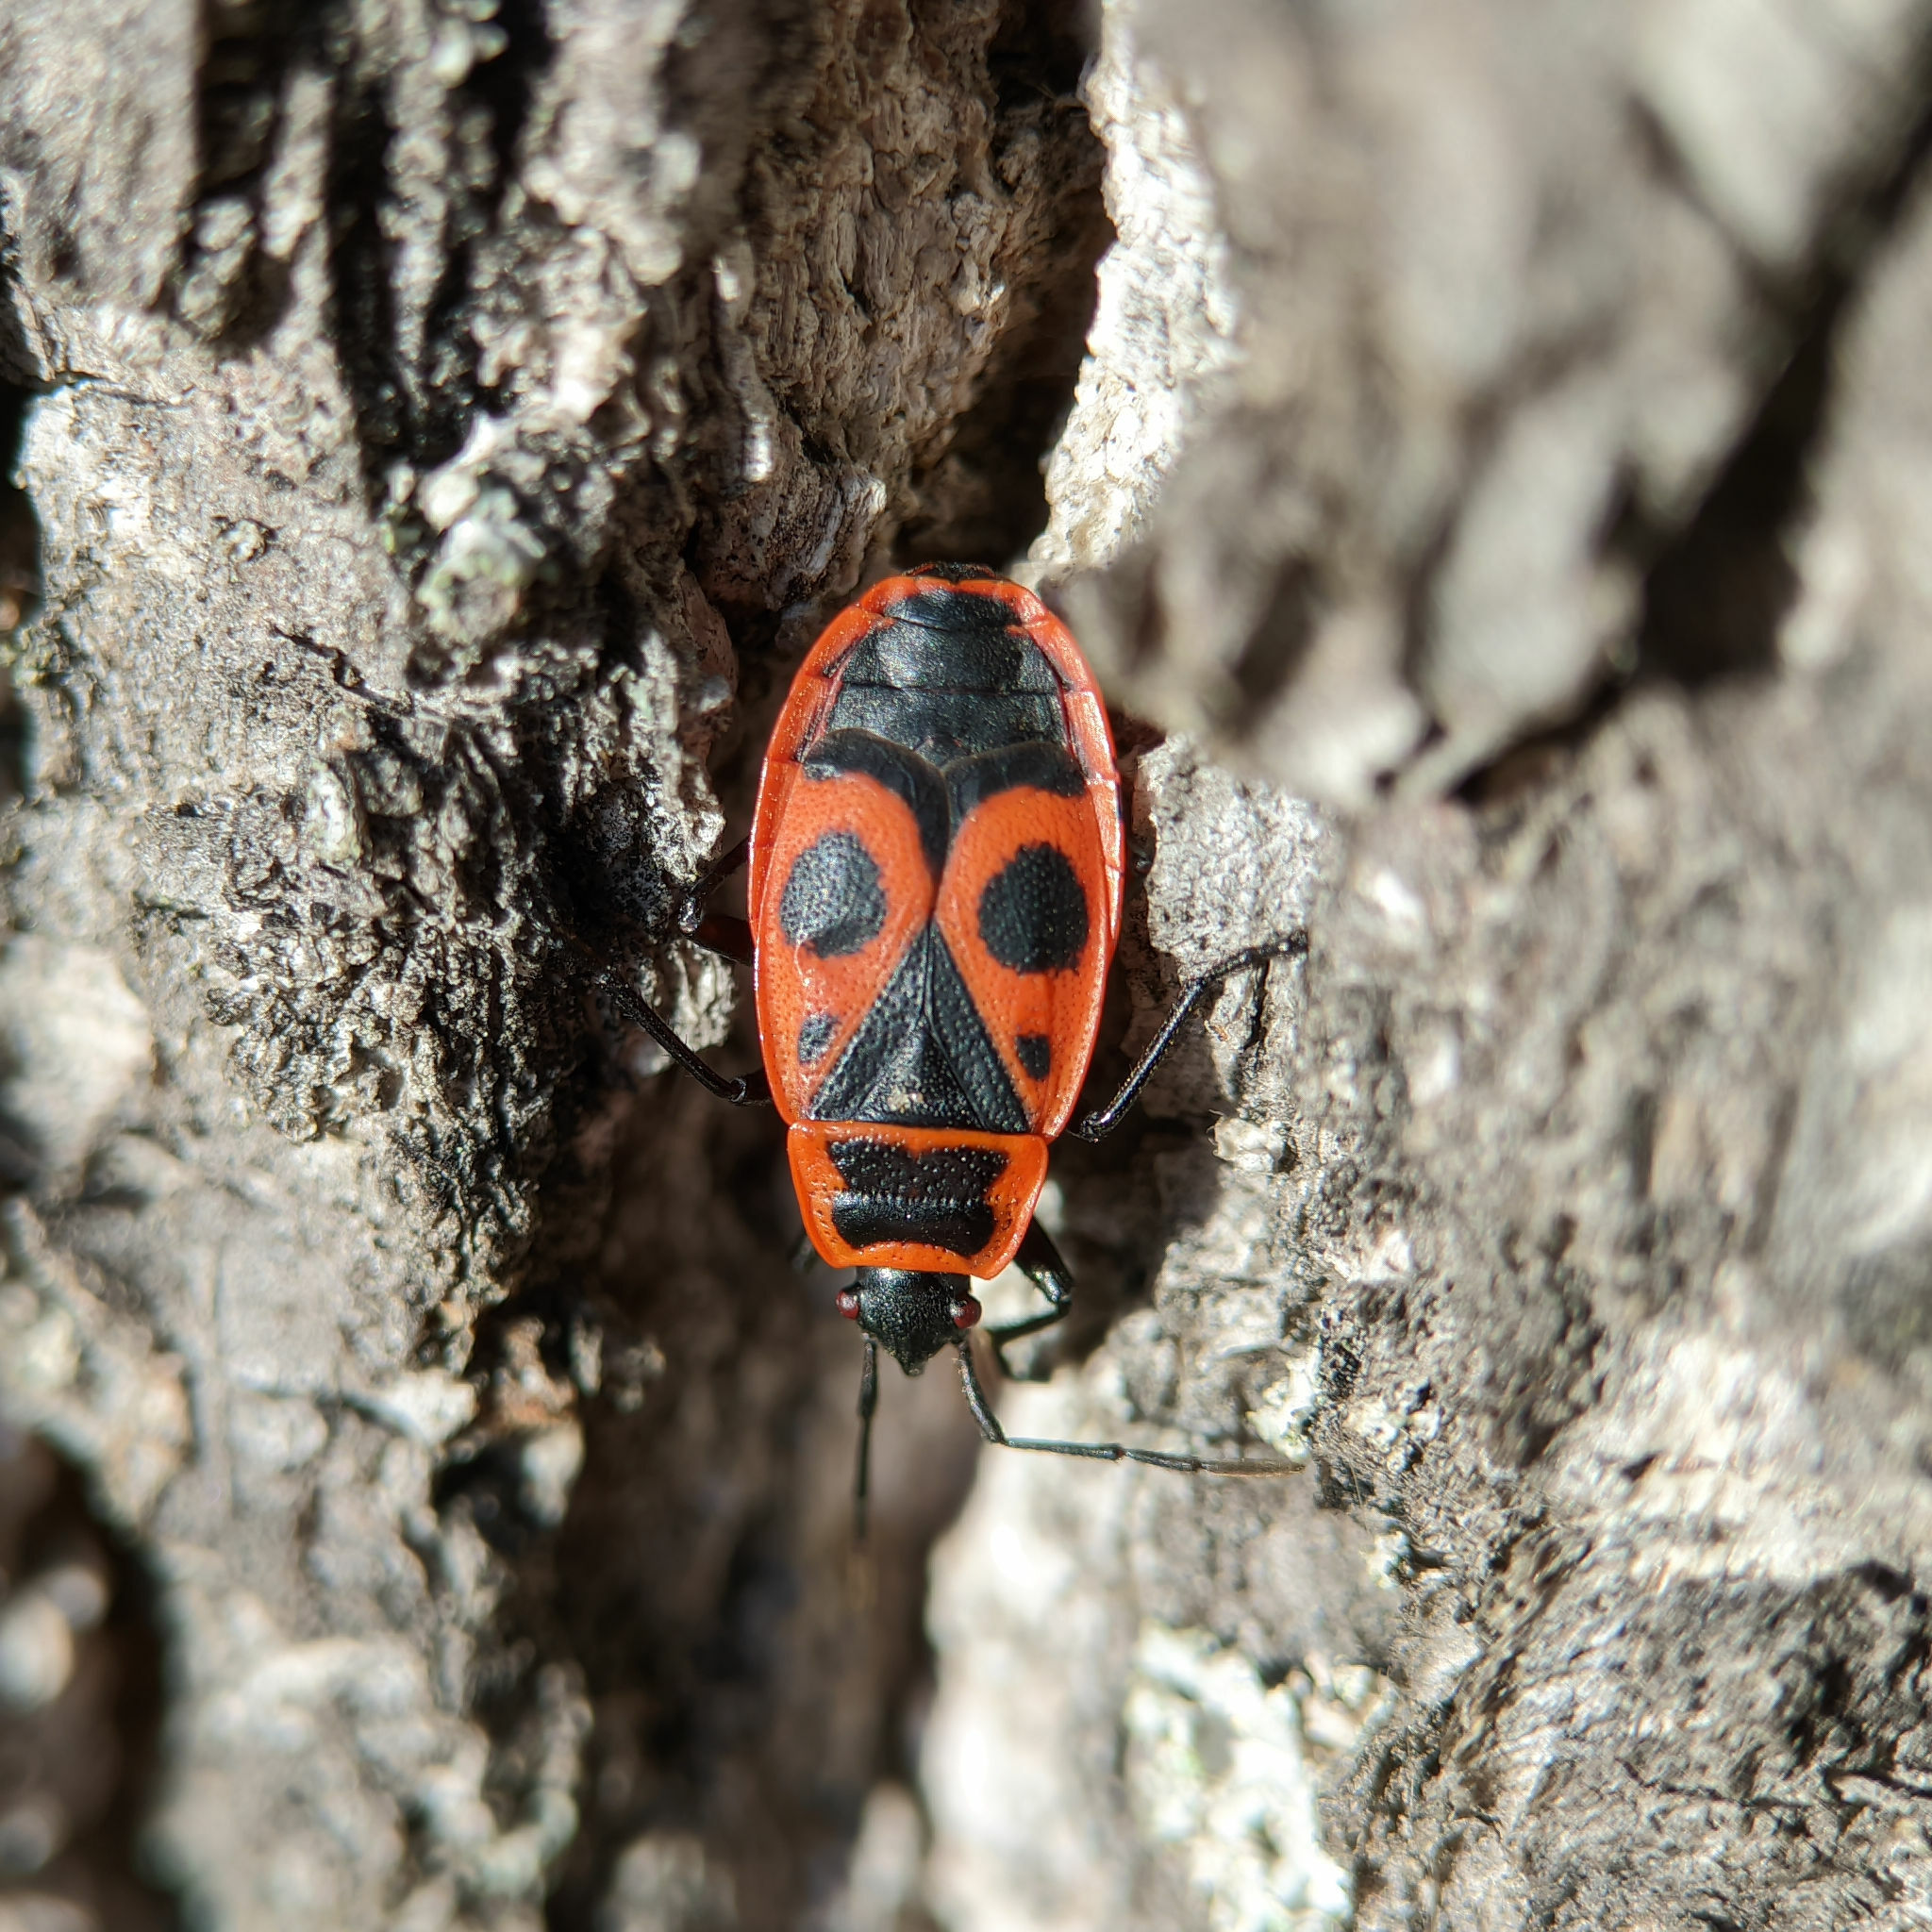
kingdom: Animalia
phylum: Arthropoda
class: Insecta
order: Hemiptera
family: Pyrrhocoridae
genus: Pyrrhocoris
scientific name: Pyrrhocoris apterus
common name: Firebug
